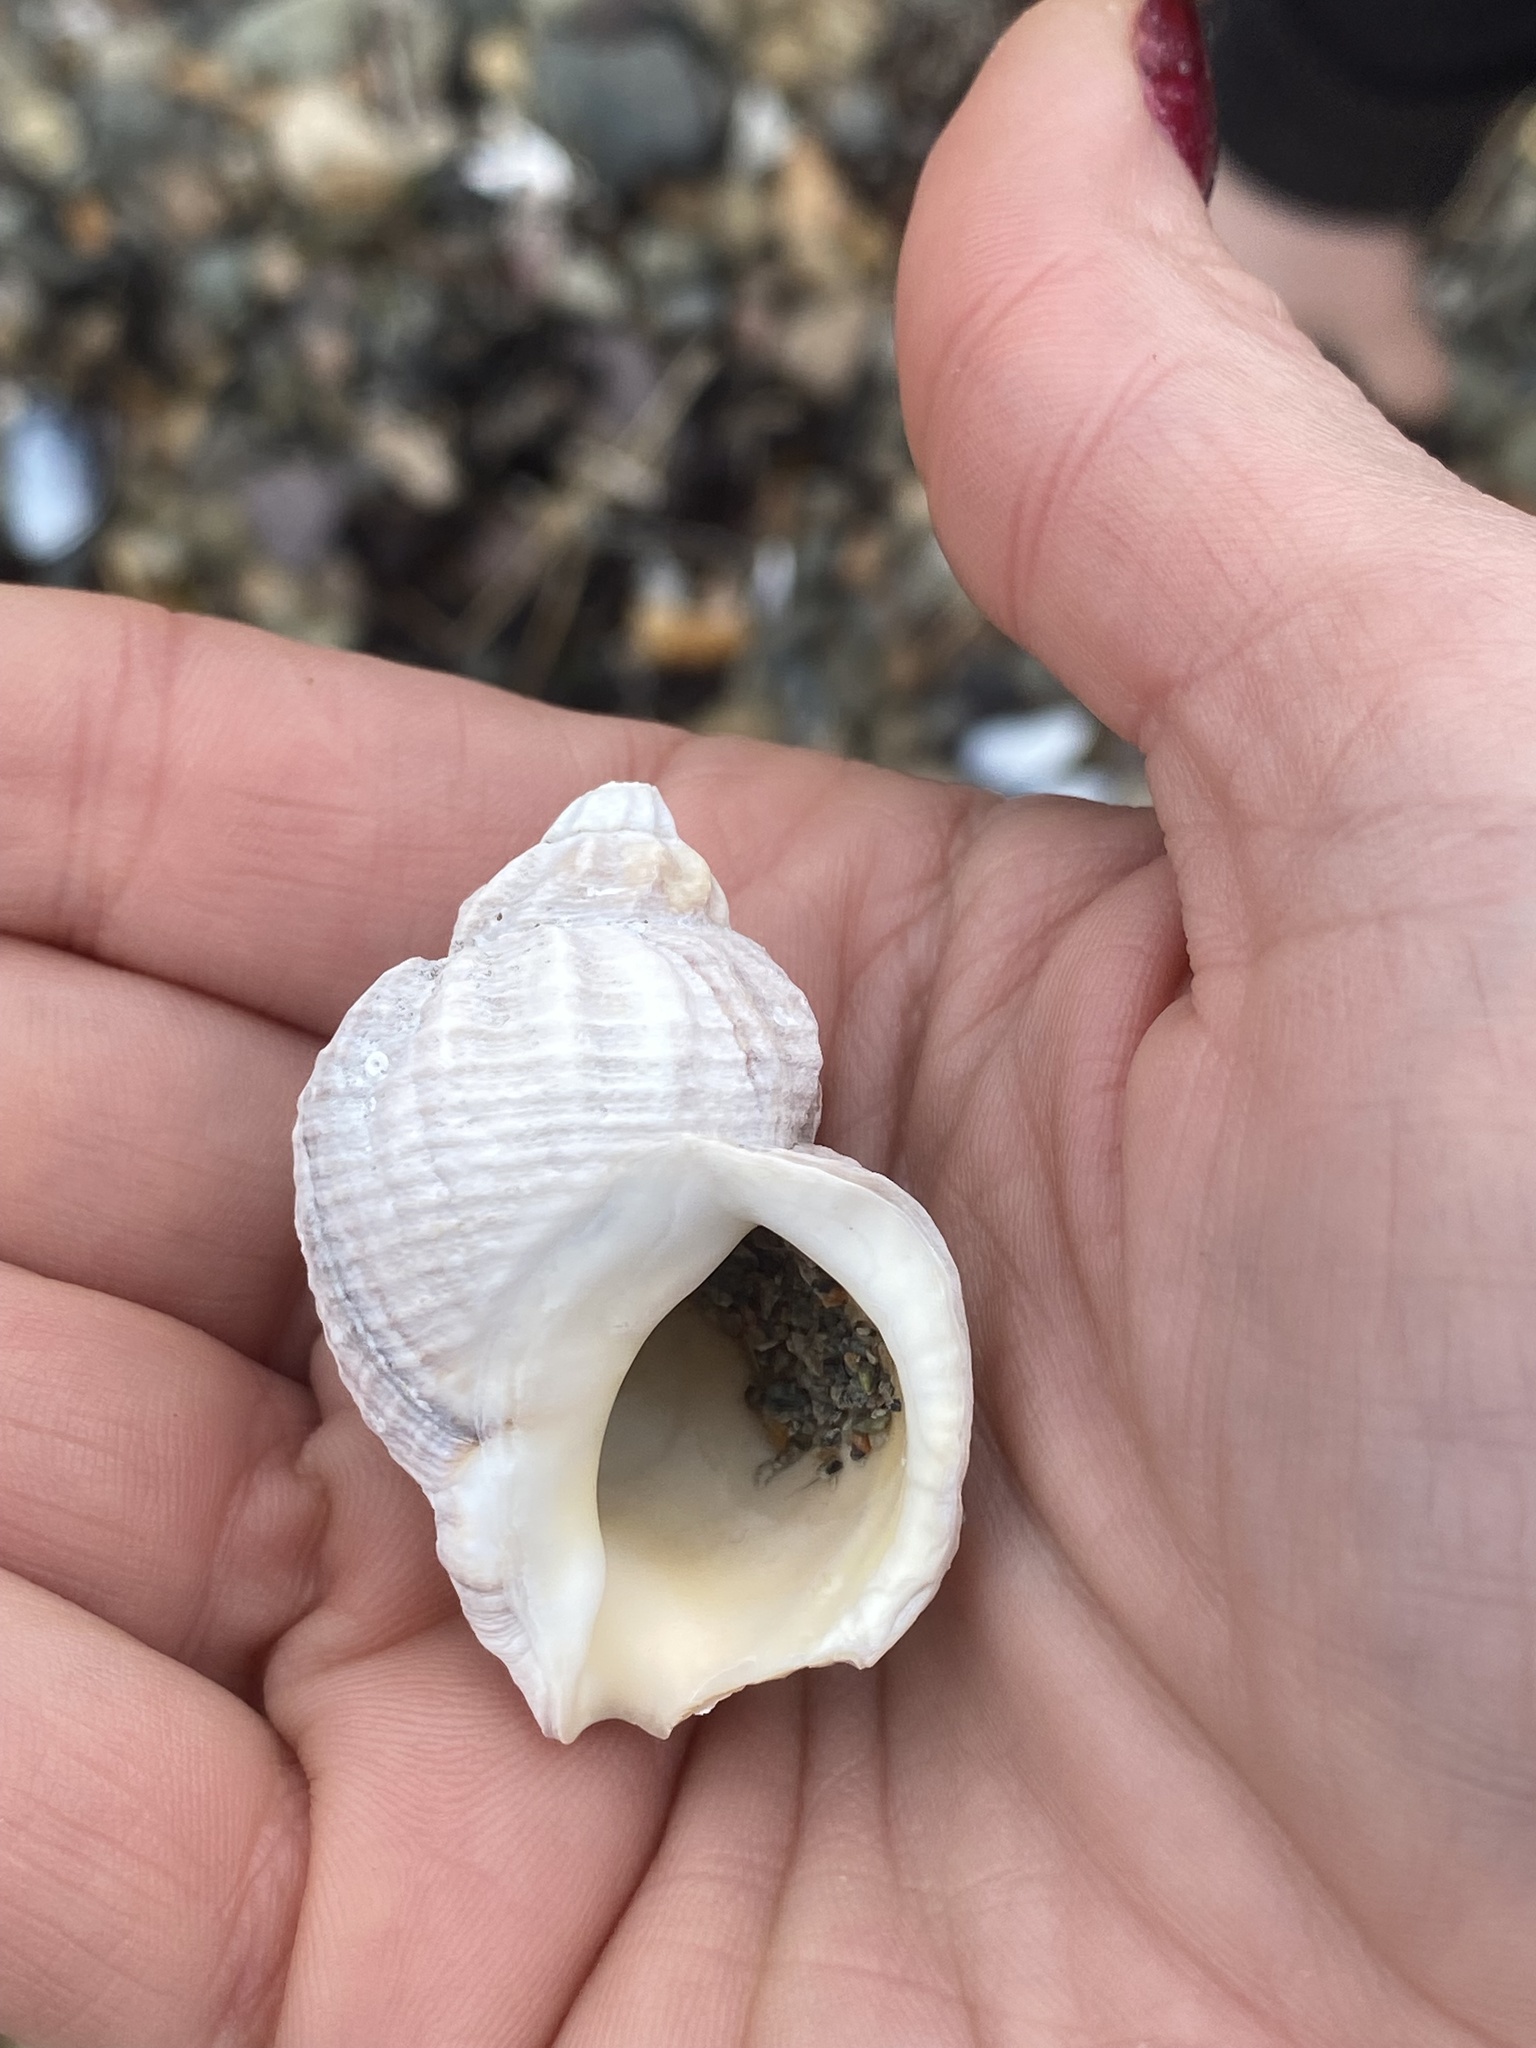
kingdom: Animalia
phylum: Mollusca
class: Gastropoda
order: Neogastropoda
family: Buccinidae
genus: Buccinum
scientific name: Buccinum undatum
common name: Common whelk
